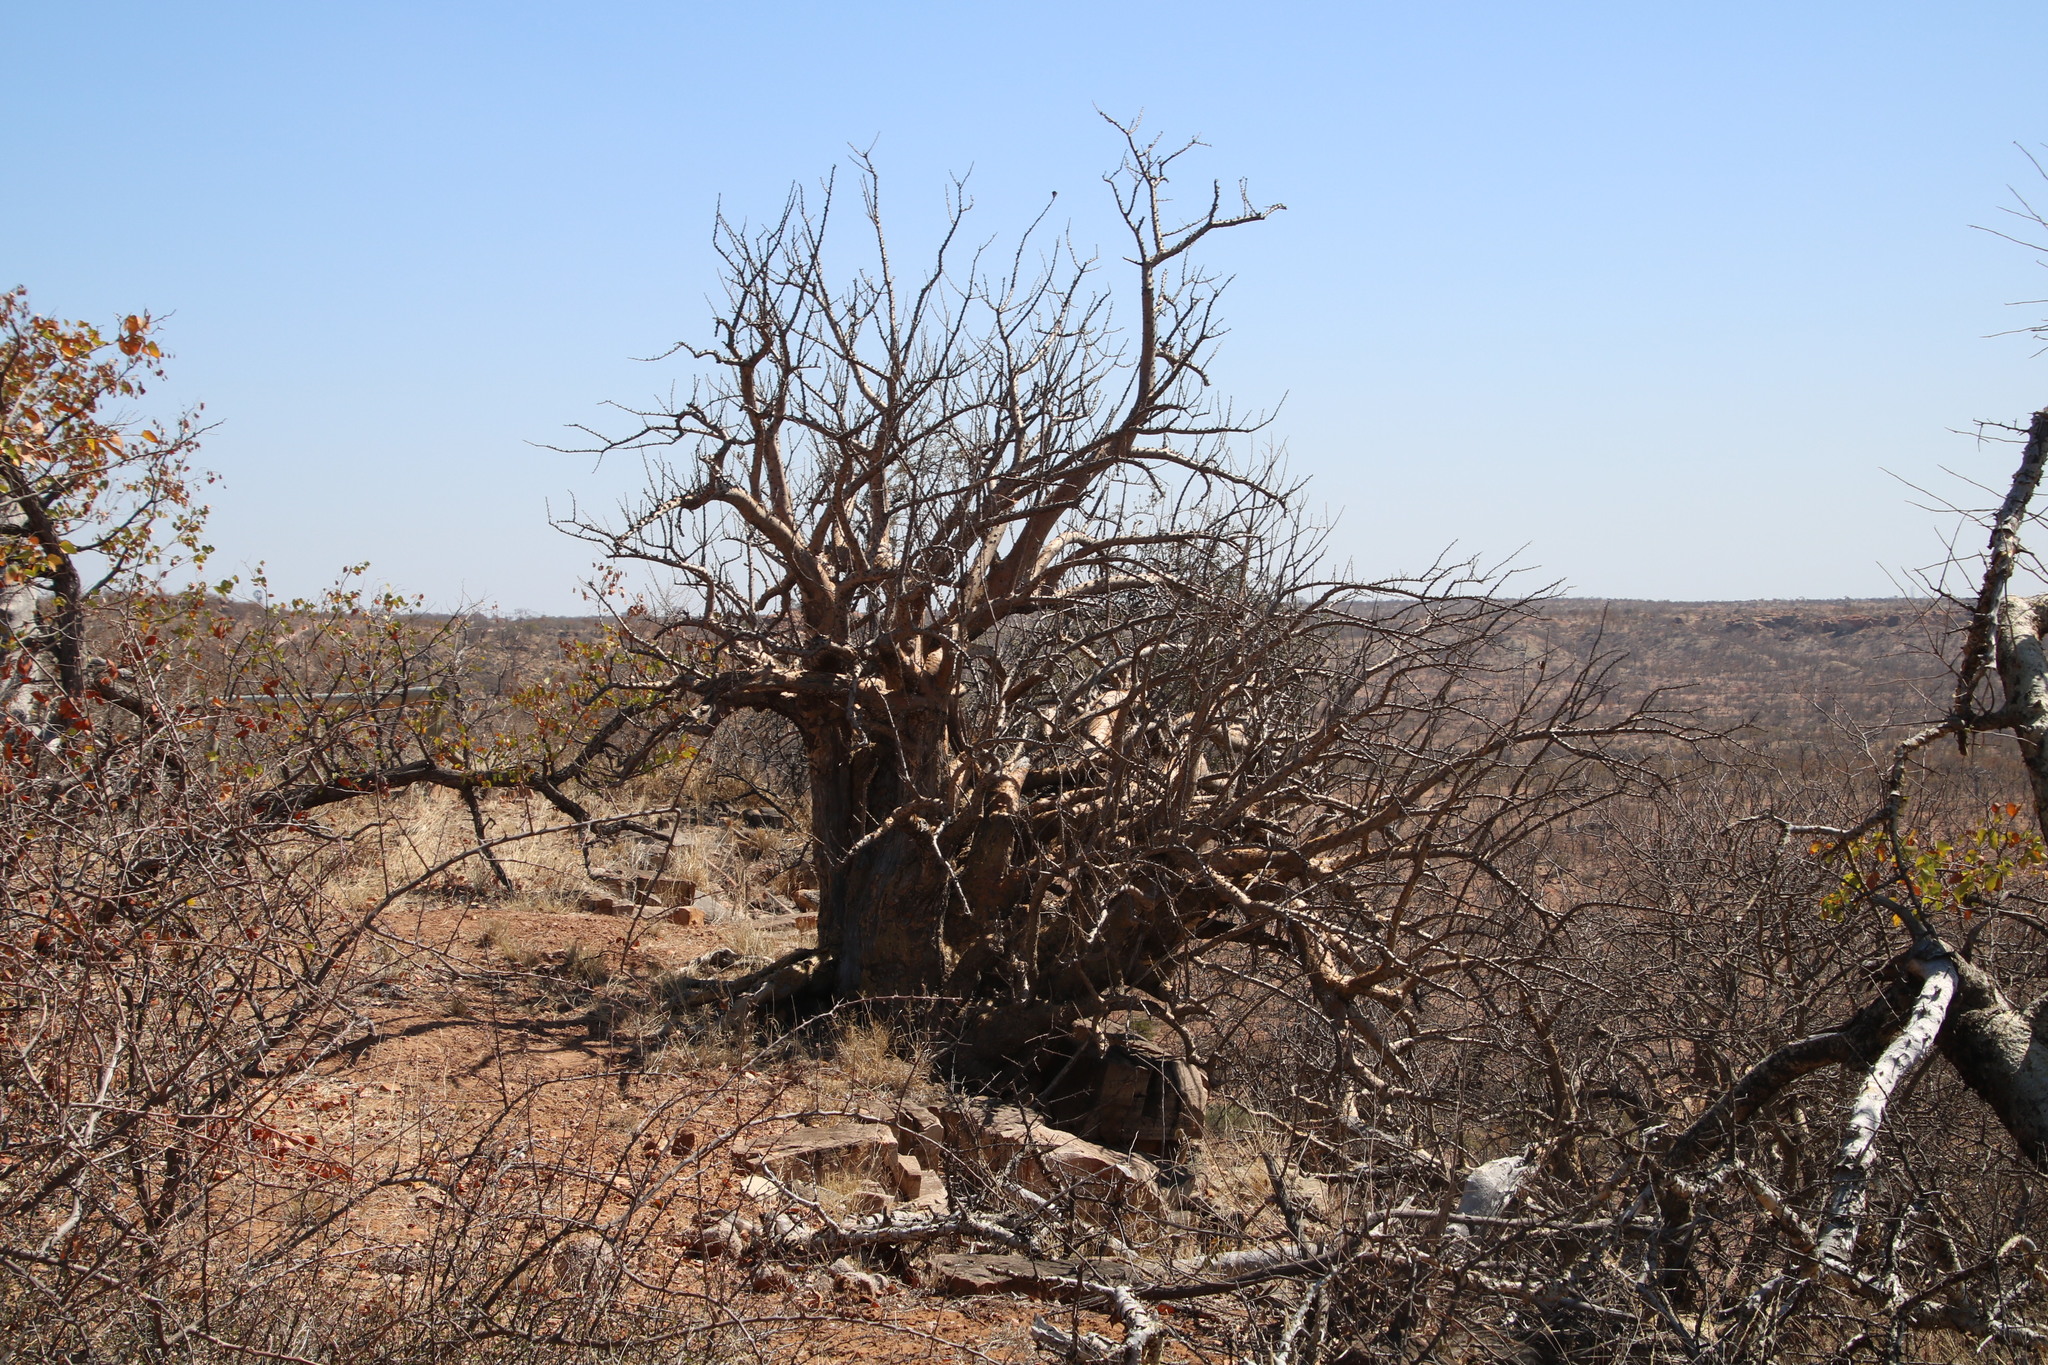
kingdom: Plantae
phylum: Tracheophyta
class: Magnoliopsida
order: Lamiales
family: Pedaliaceae
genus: Sesamothamnus
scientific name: Sesamothamnus lugardii
